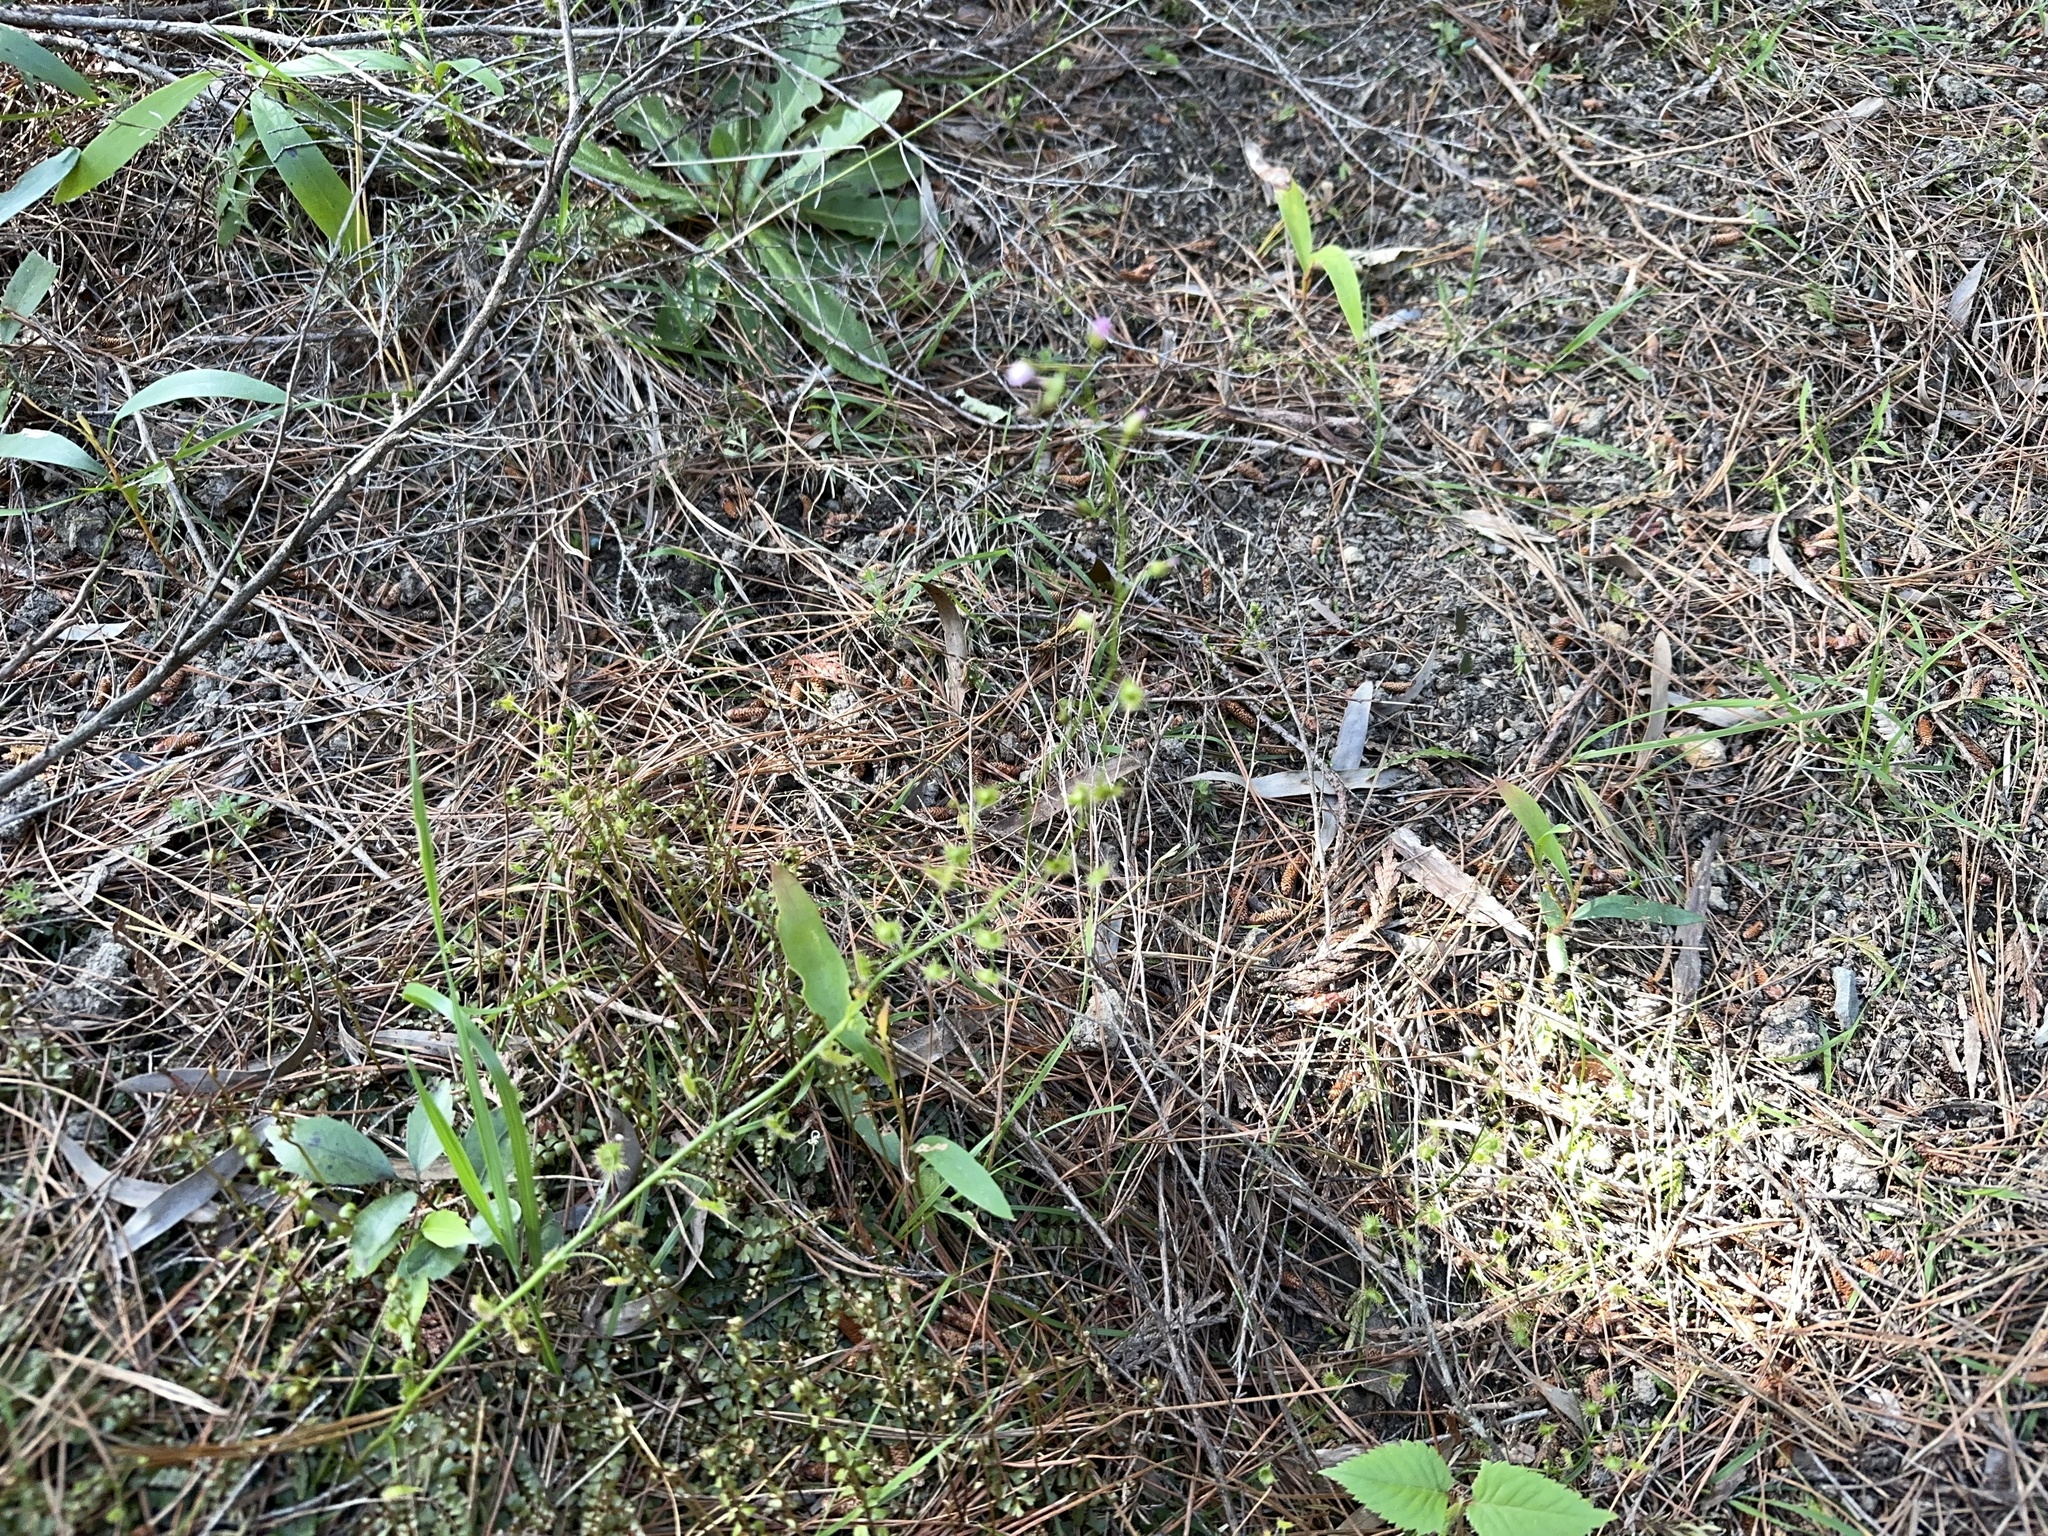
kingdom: Plantae
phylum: Tracheophyta
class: Magnoliopsida
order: Caryophyllales
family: Droseraceae
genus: Drosera
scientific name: Drosera peltata
